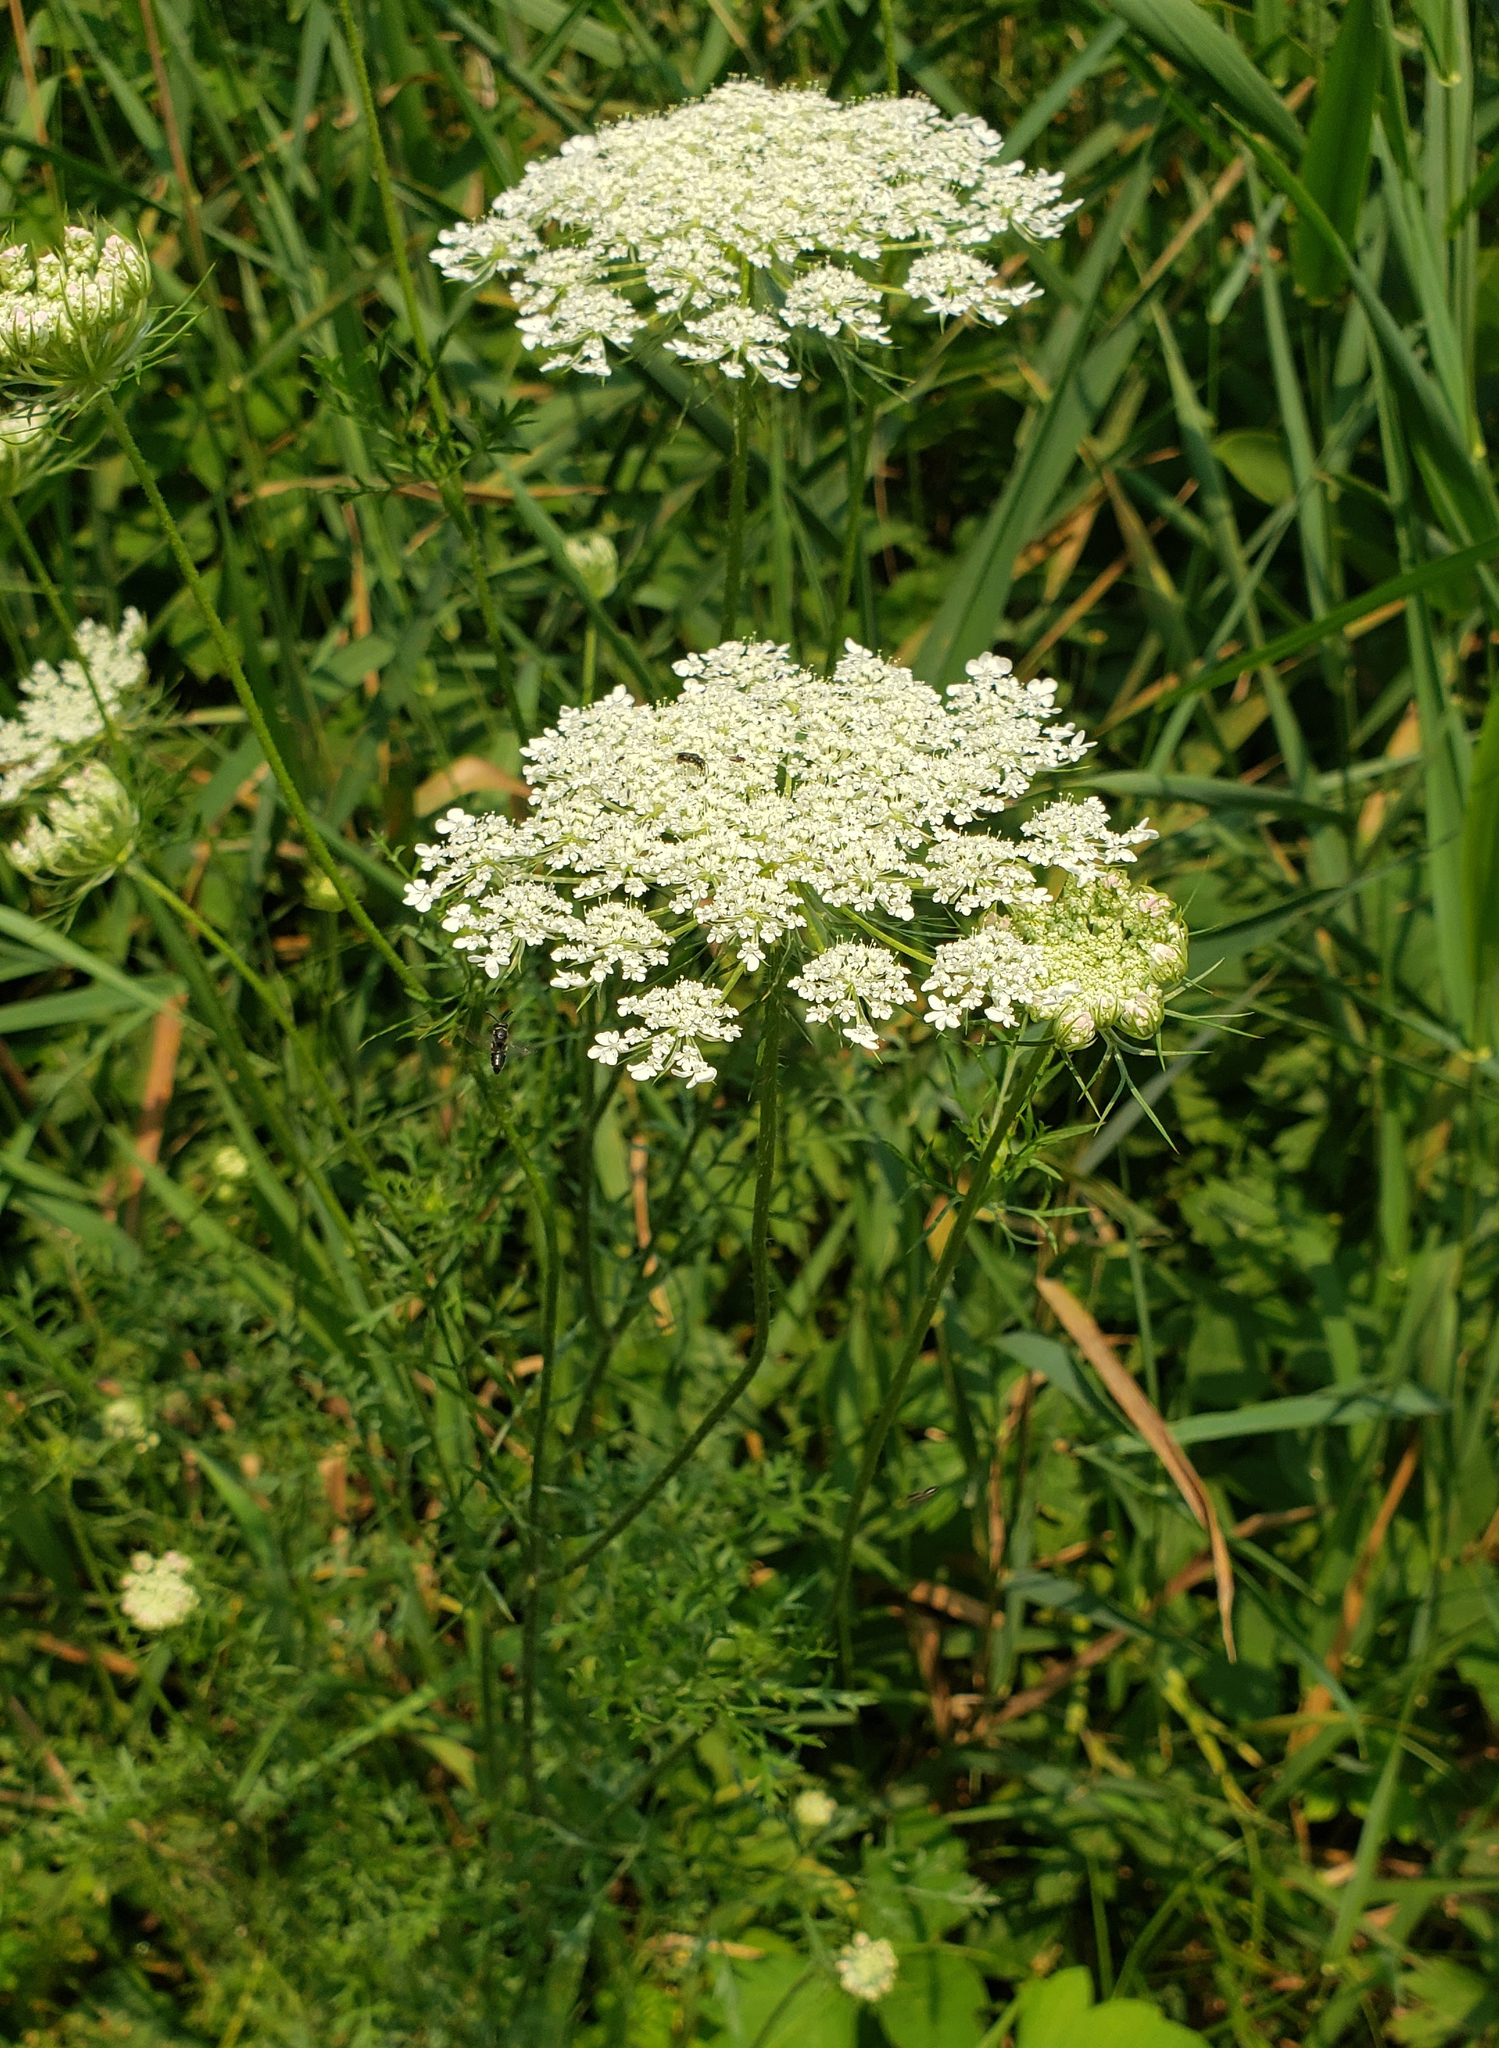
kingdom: Plantae
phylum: Tracheophyta
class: Magnoliopsida
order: Apiales
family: Apiaceae
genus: Daucus
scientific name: Daucus carota
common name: Wild carrot
